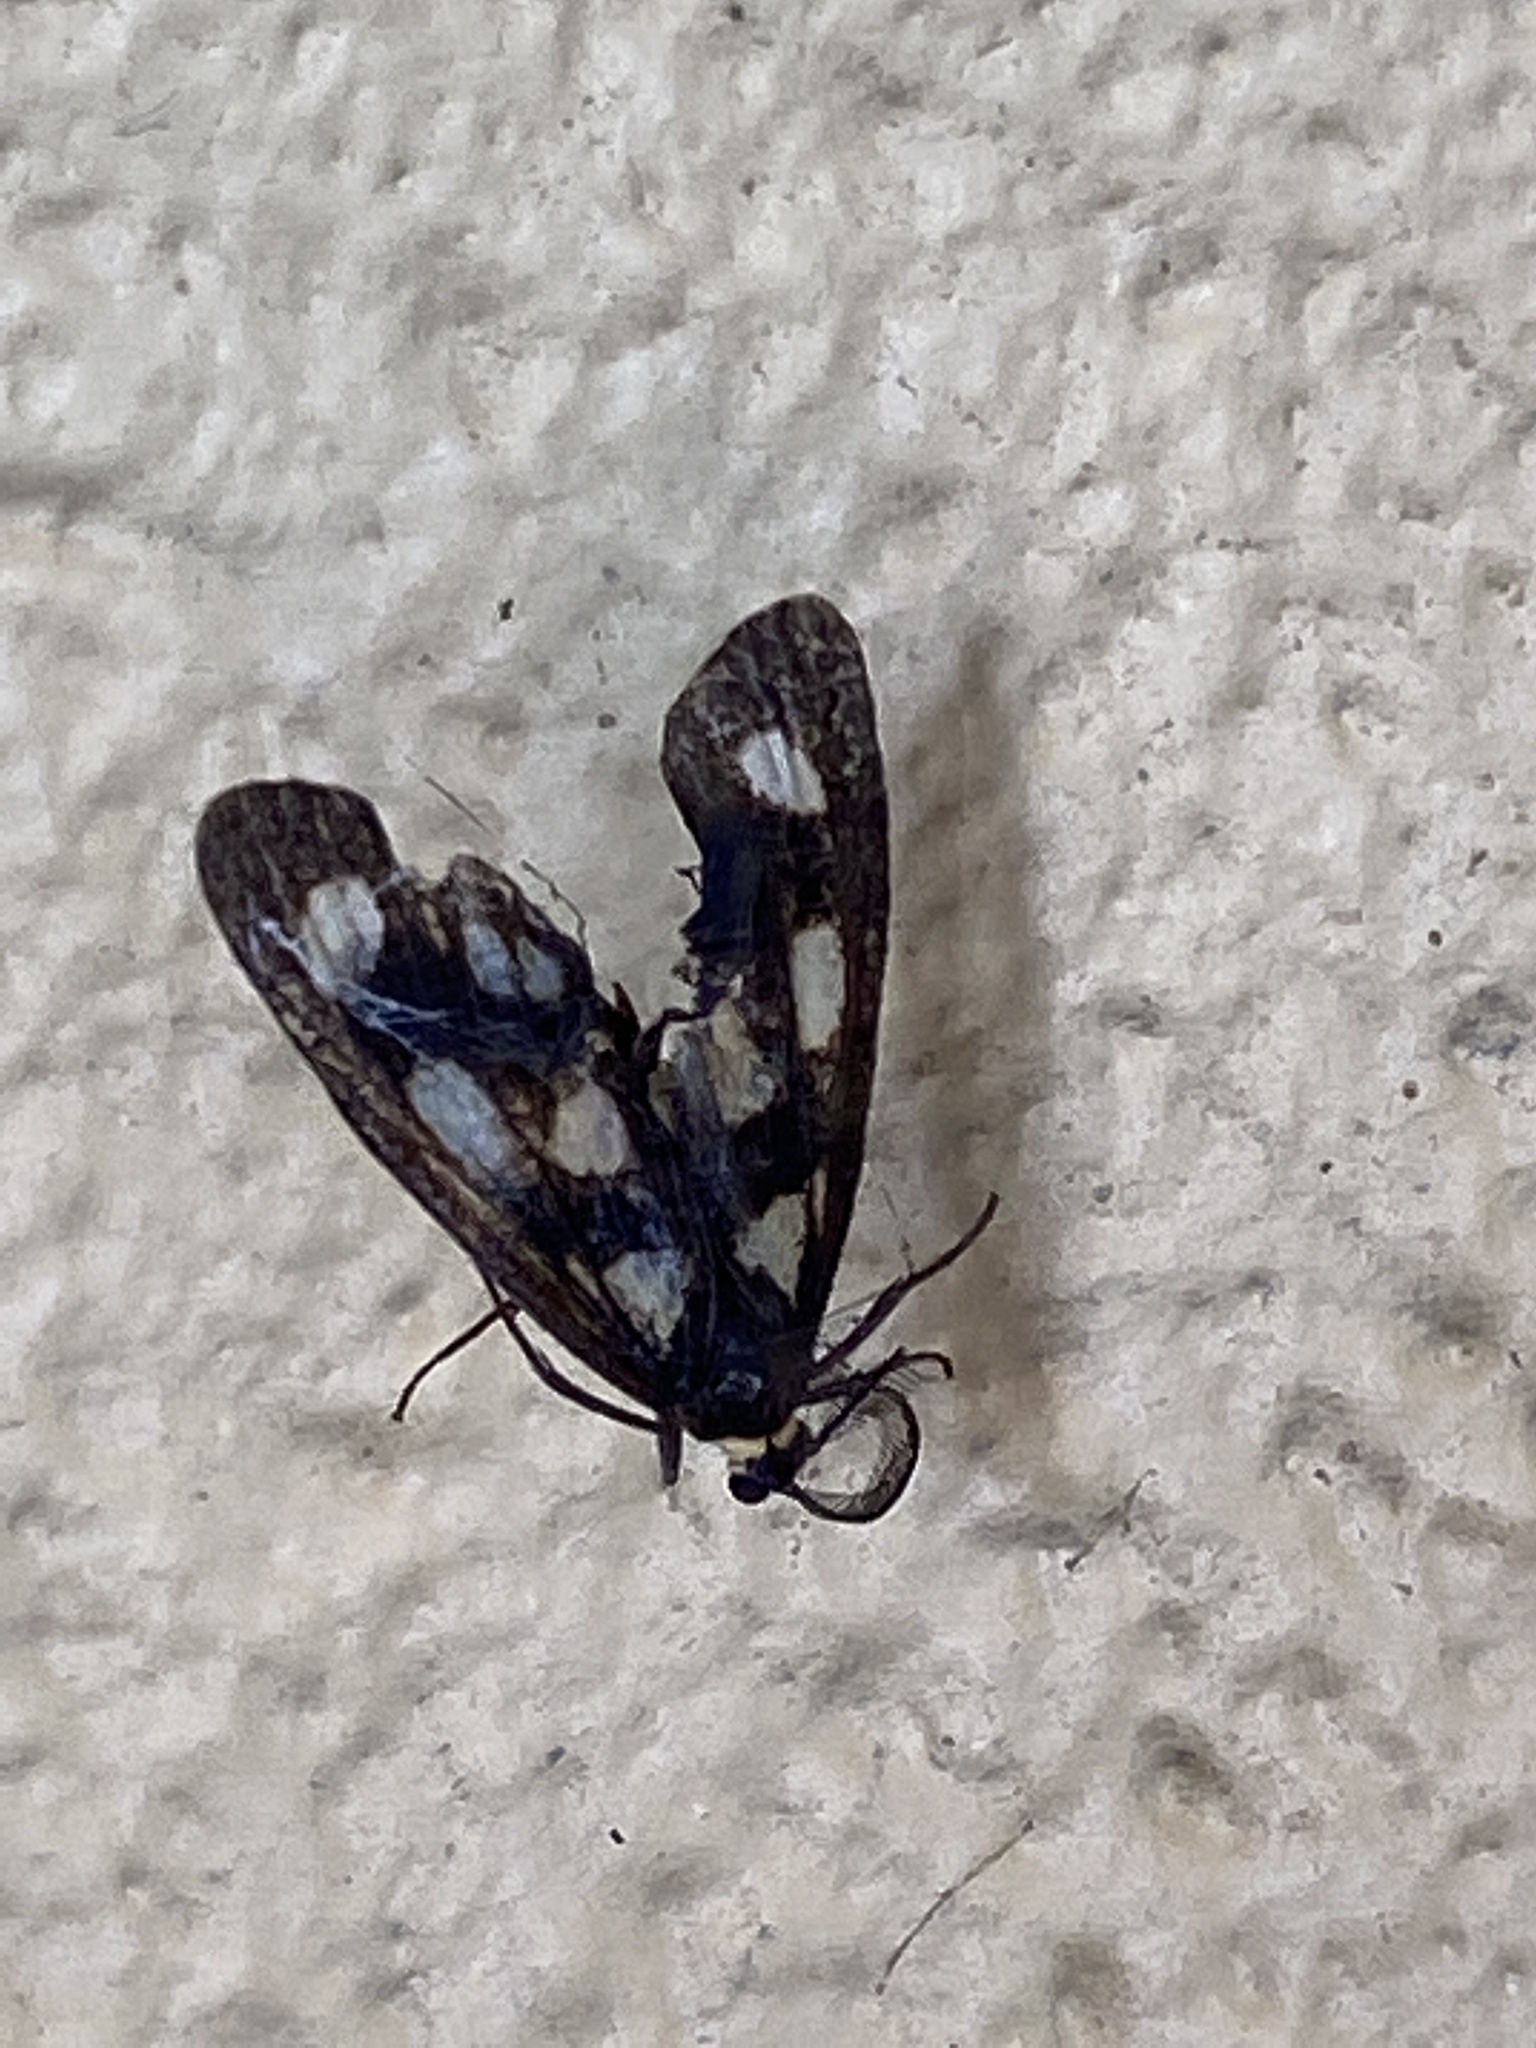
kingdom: Animalia
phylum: Arthropoda
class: Insecta
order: Lepidoptera
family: Erebidae
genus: Asura
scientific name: Asura cervicalis
